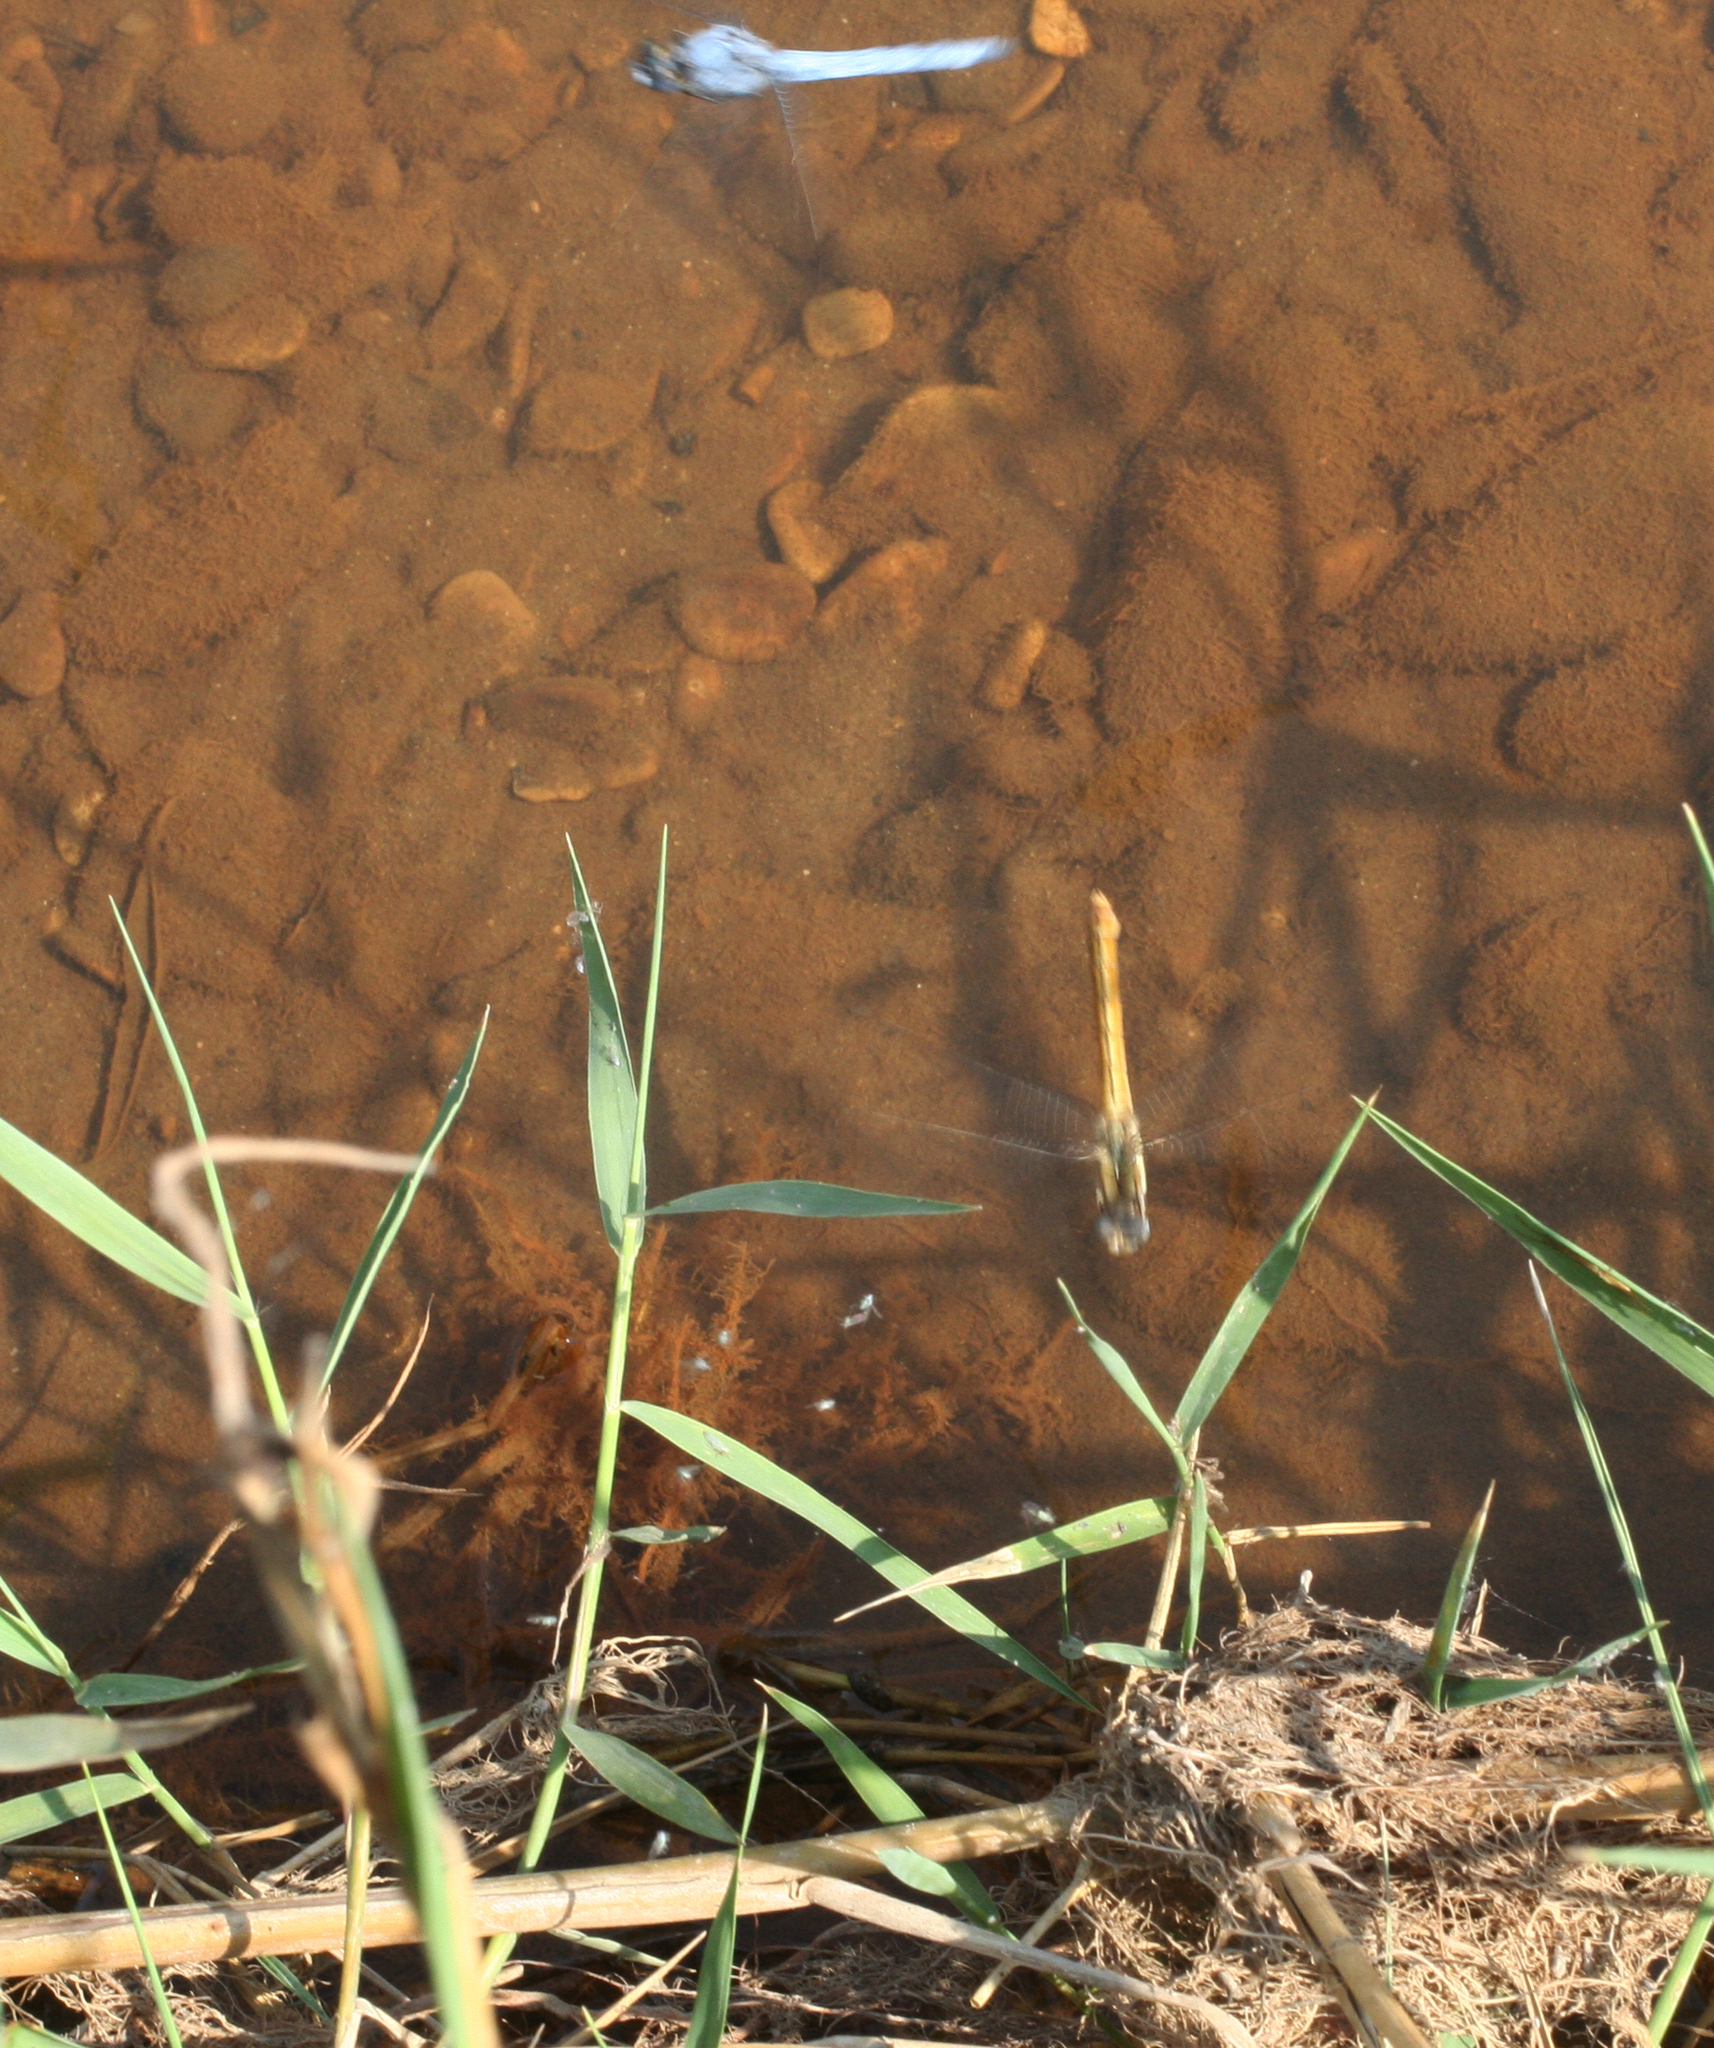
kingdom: Animalia
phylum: Arthropoda
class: Insecta
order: Odonata
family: Libellulidae
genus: Orthetrum
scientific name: Orthetrum brunneum
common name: Southern skimmer
